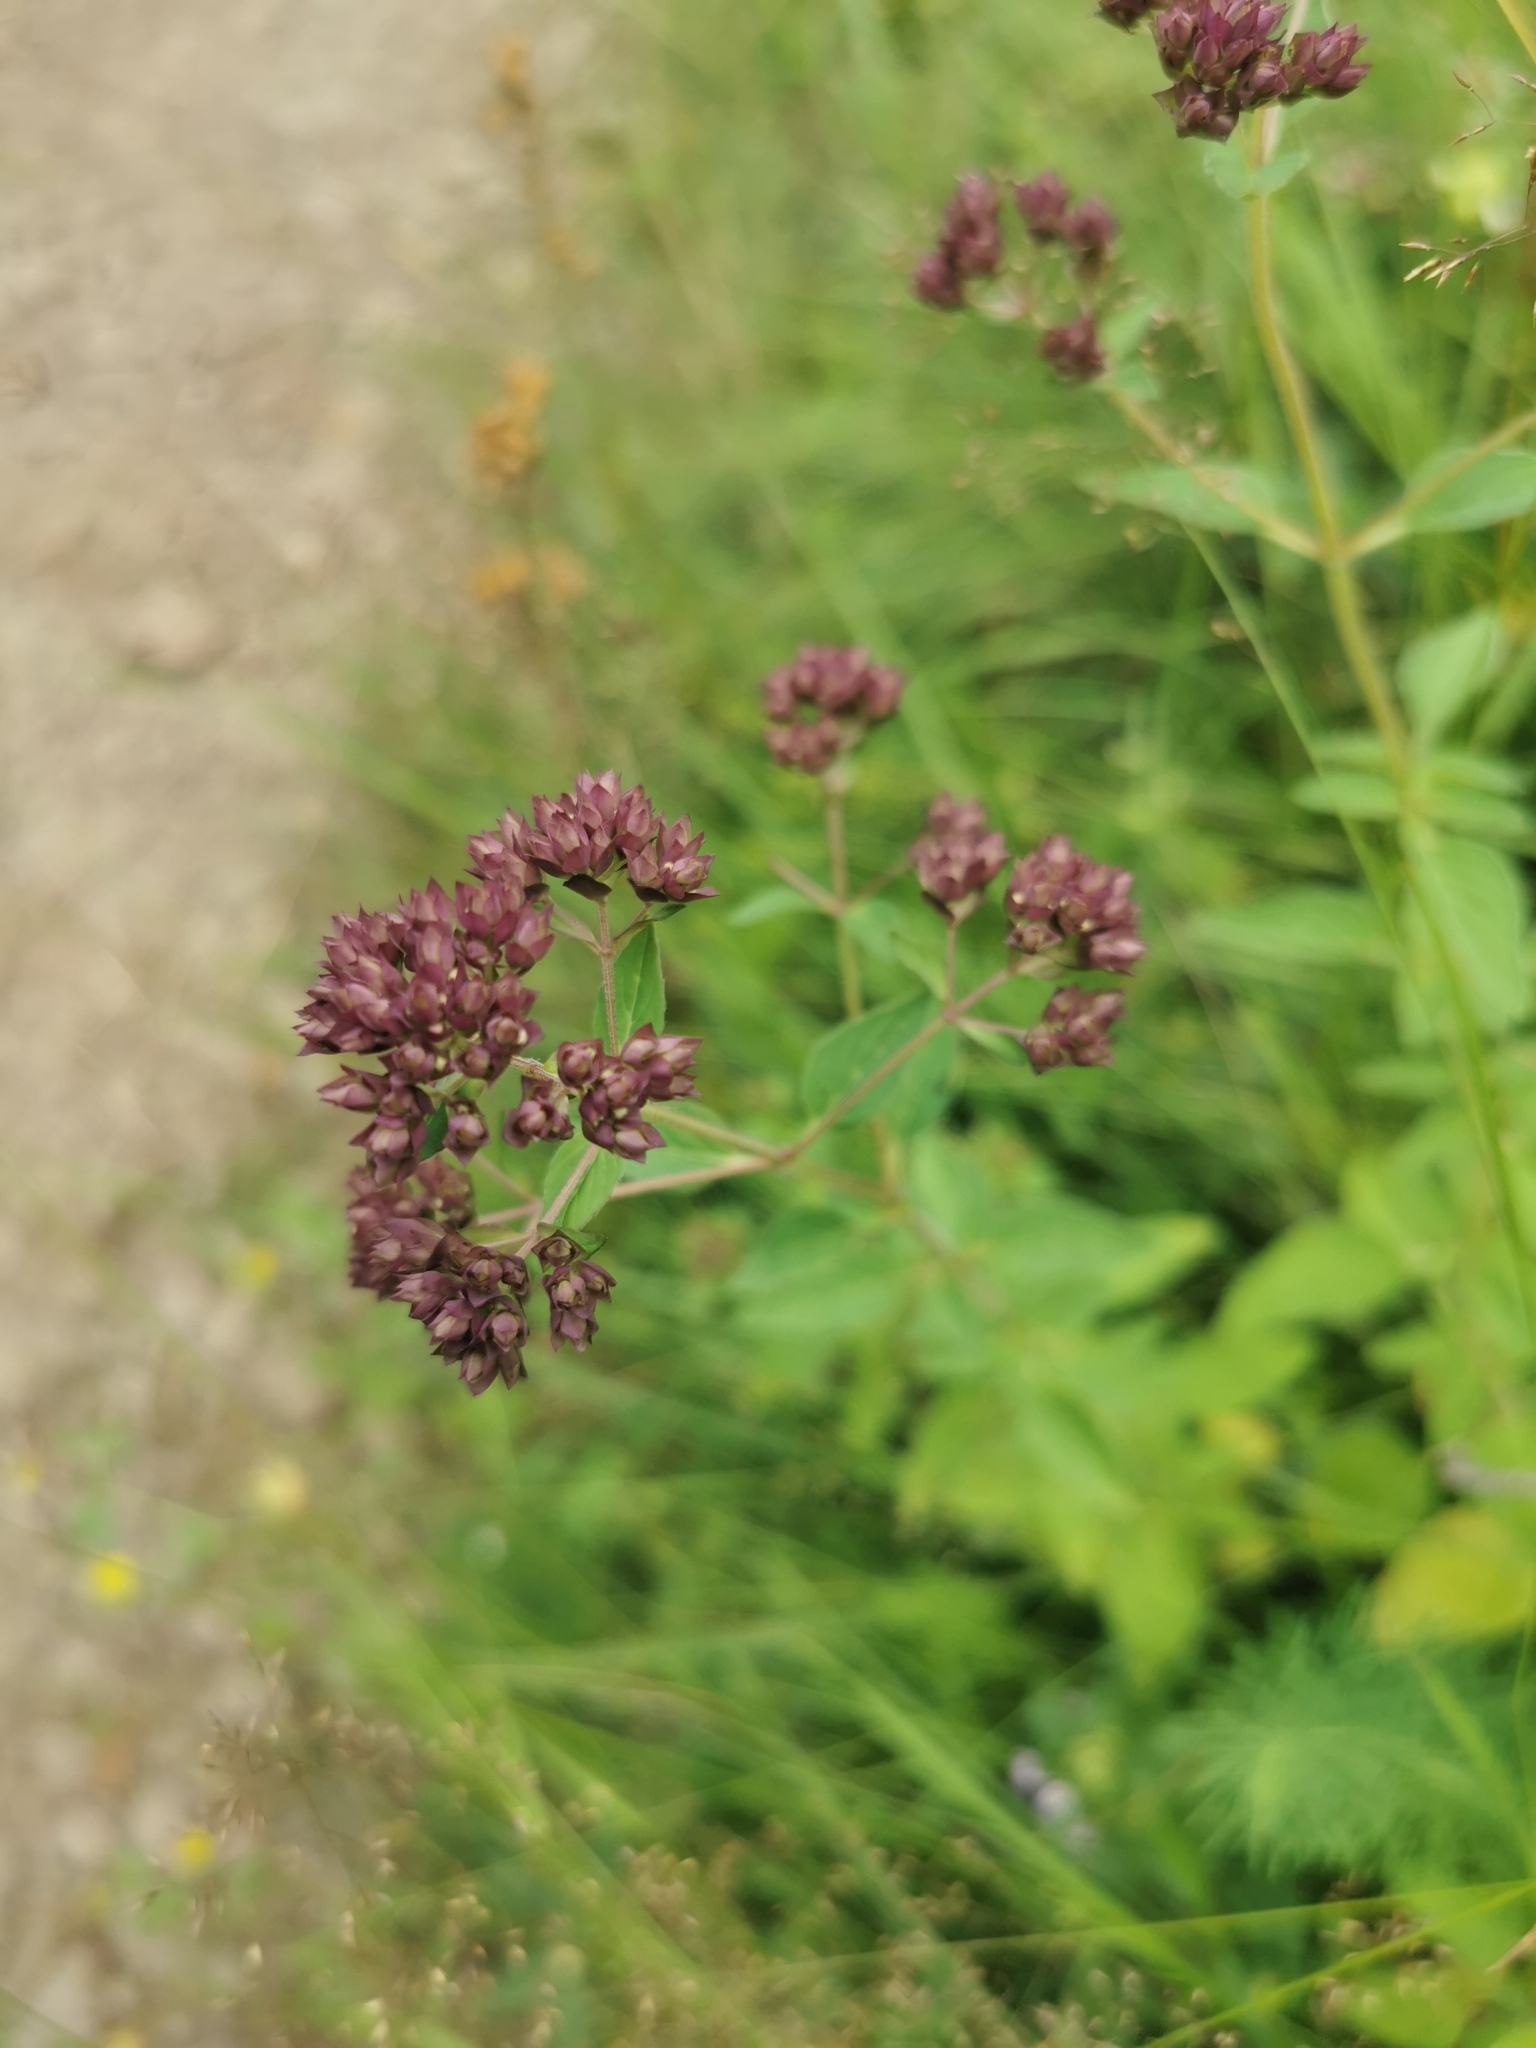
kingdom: Plantae
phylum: Tracheophyta
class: Magnoliopsida
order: Lamiales
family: Lamiaceae
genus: Origanum
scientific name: Origanum vulgare
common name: Wild marjoram
